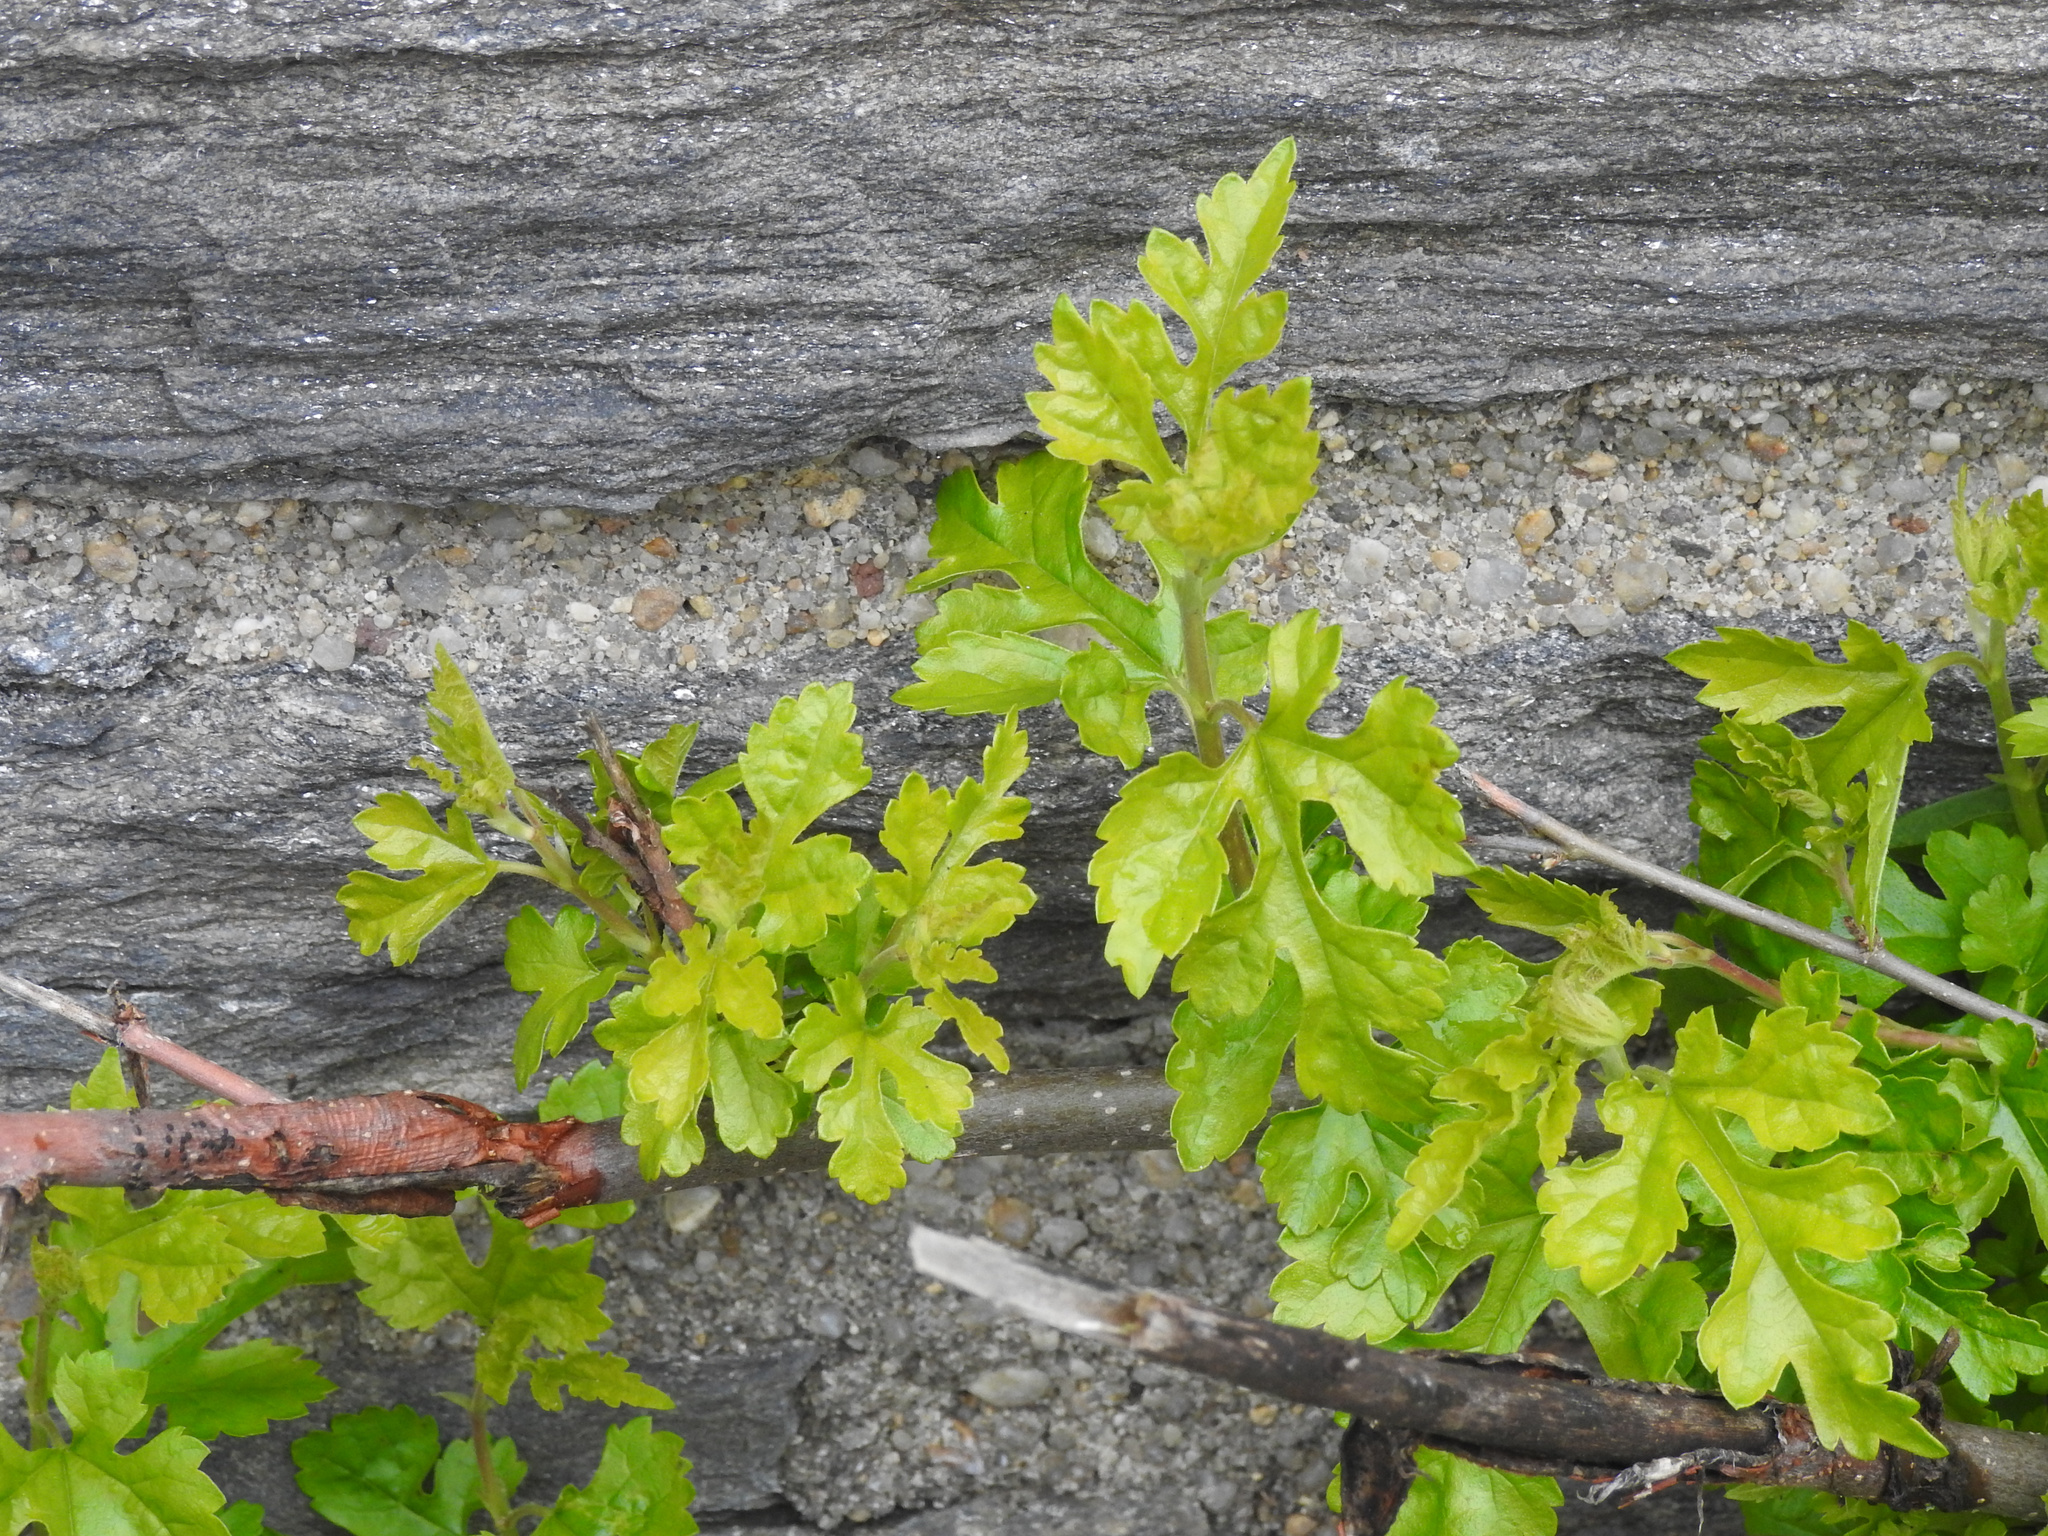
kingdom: Plantae
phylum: Tracheophyta
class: Magnoliopsida
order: Rosales
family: Moraceae
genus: Morus
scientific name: Morus alba
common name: White mulberry
